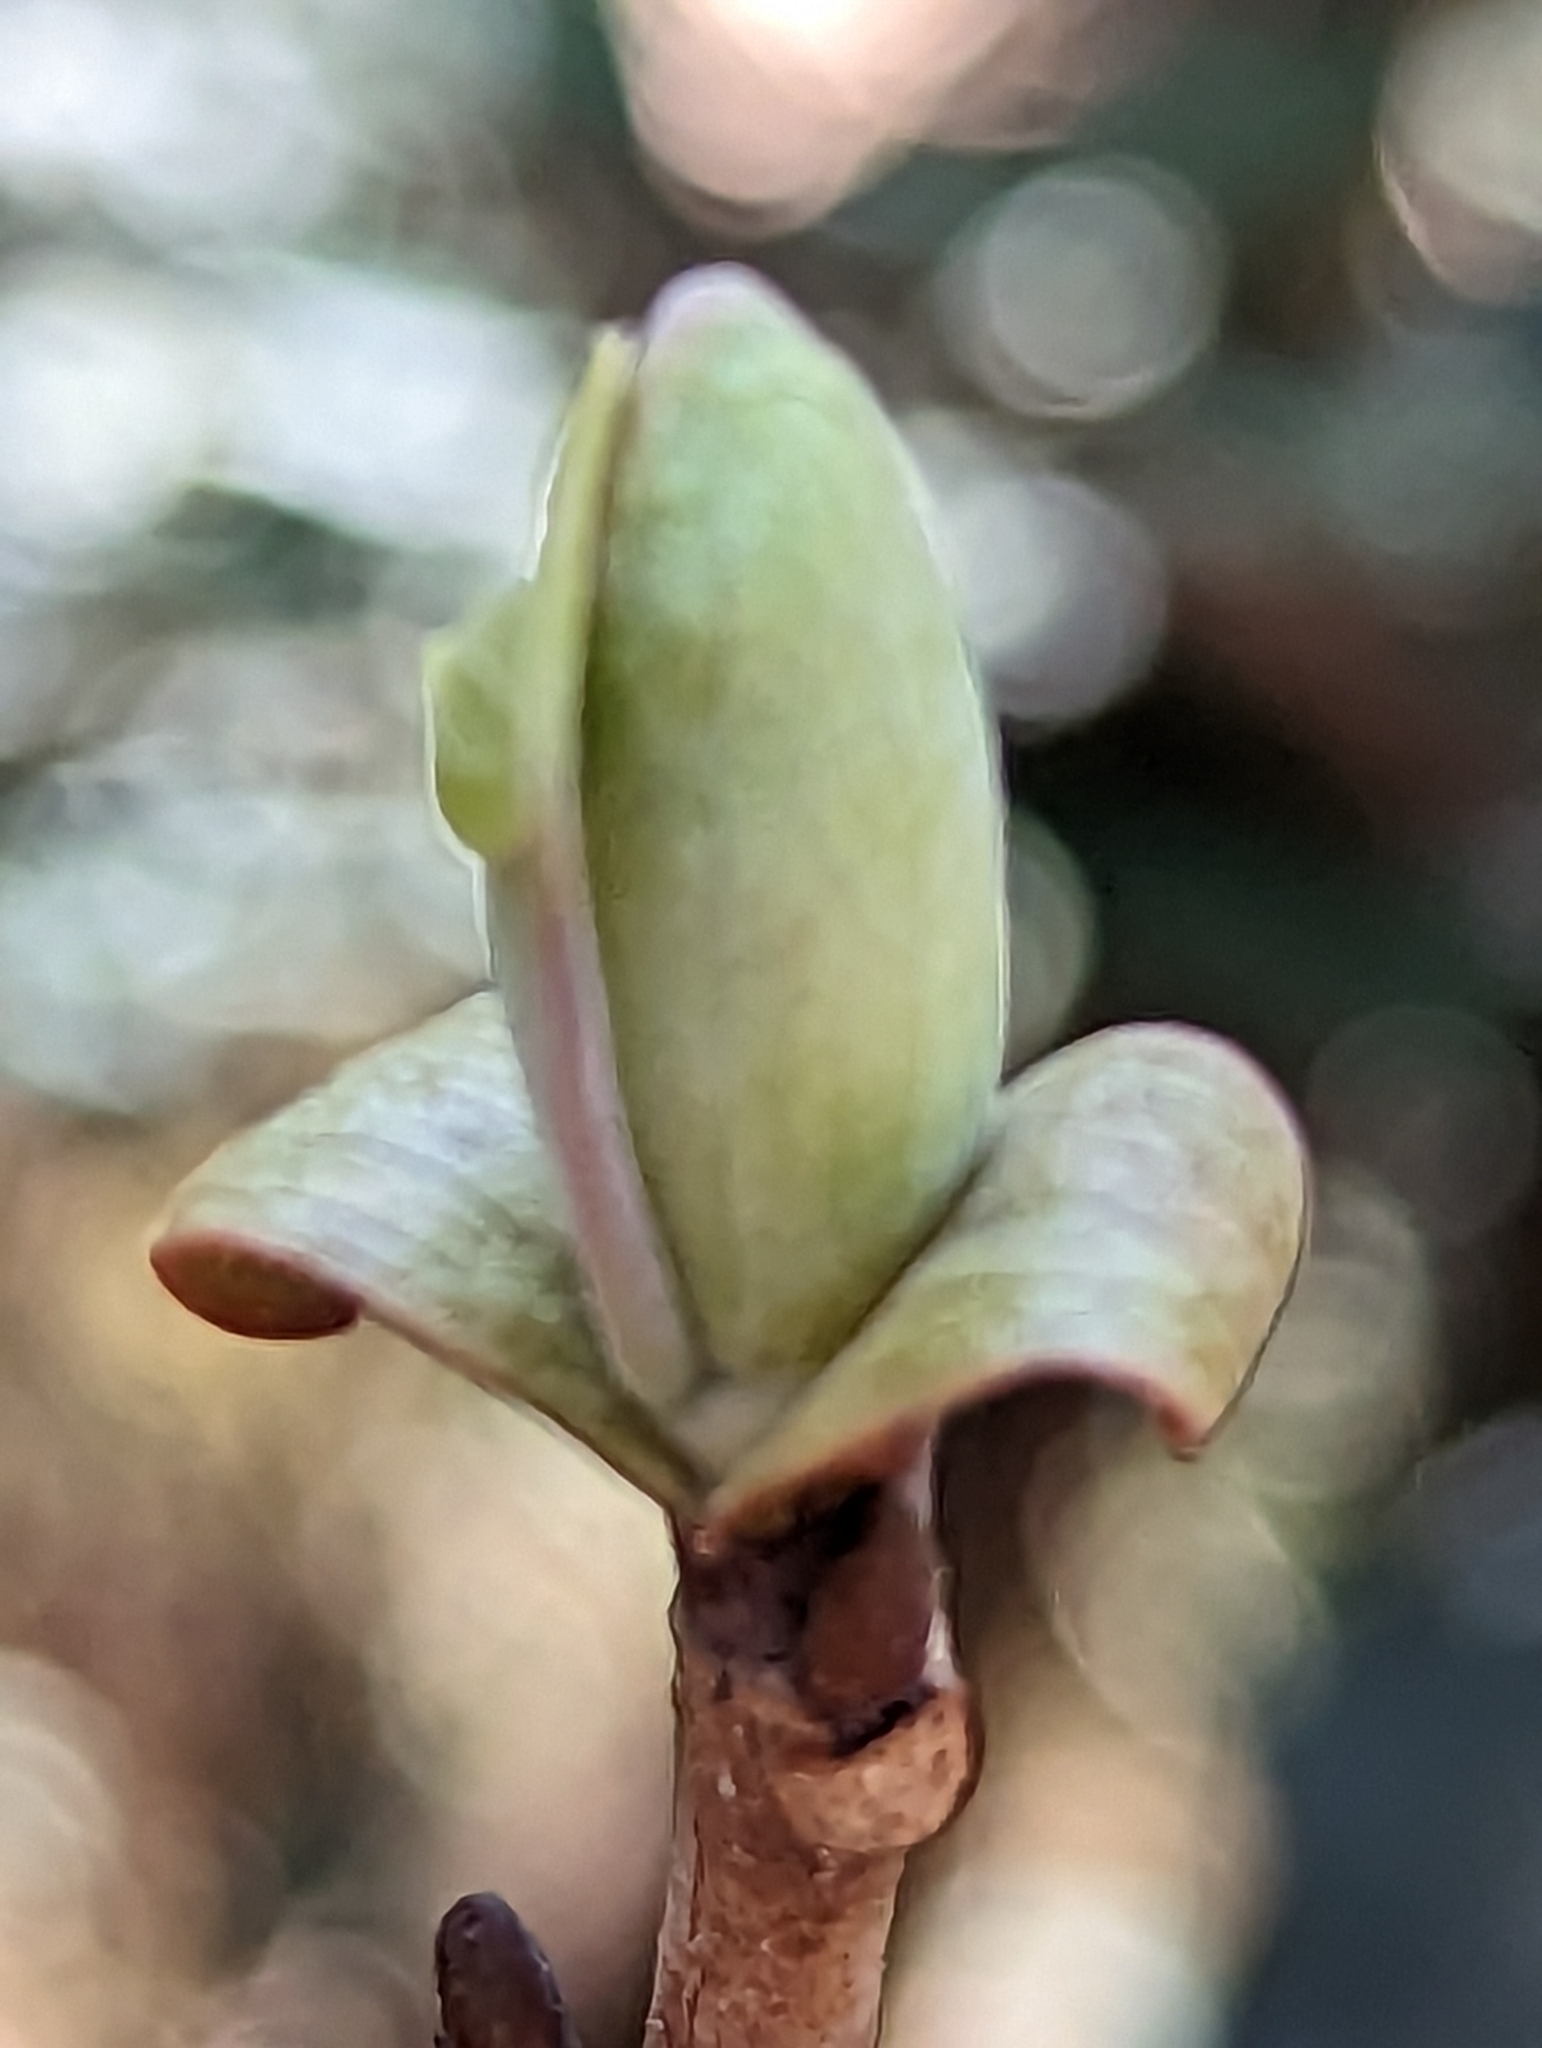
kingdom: Plantae
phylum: Tracheophyta
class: Magnoliopsida
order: Magnoliales
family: Magnoliaceae
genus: Liriodendron
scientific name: Liriodendron tulipifera
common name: Tulip tree
